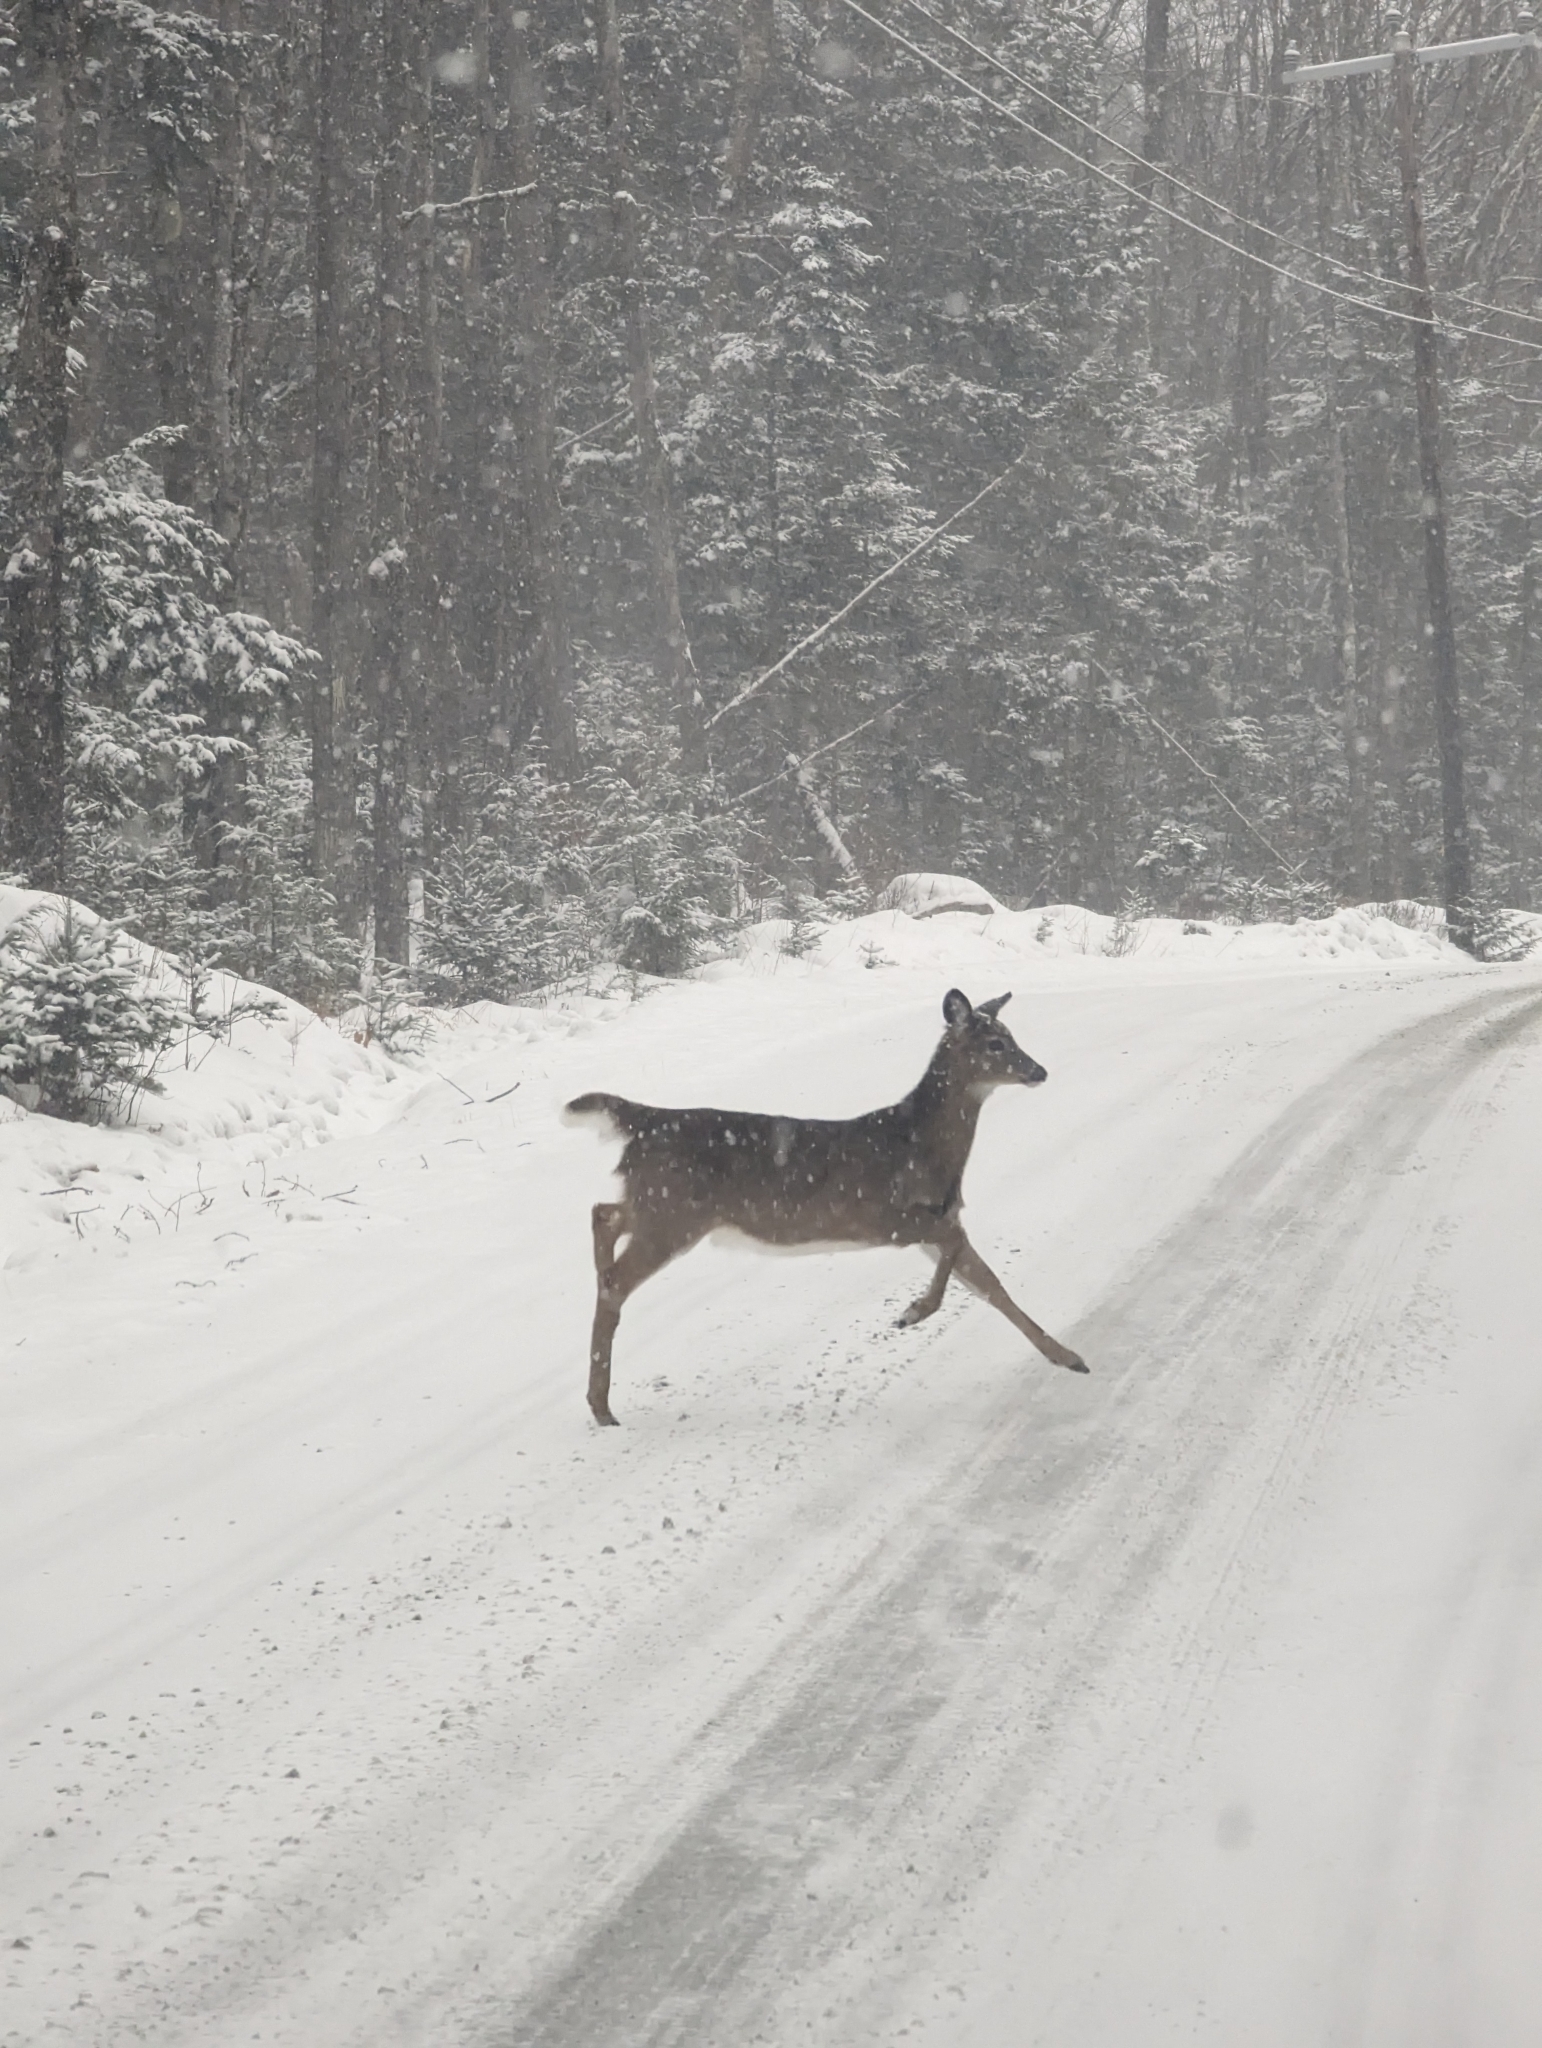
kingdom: Animalia
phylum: Chordata
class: Mammalia
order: Artiodactyla
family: Cervidae
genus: Odocoileus
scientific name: Odocoileus virginianus
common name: White-tailed deer
